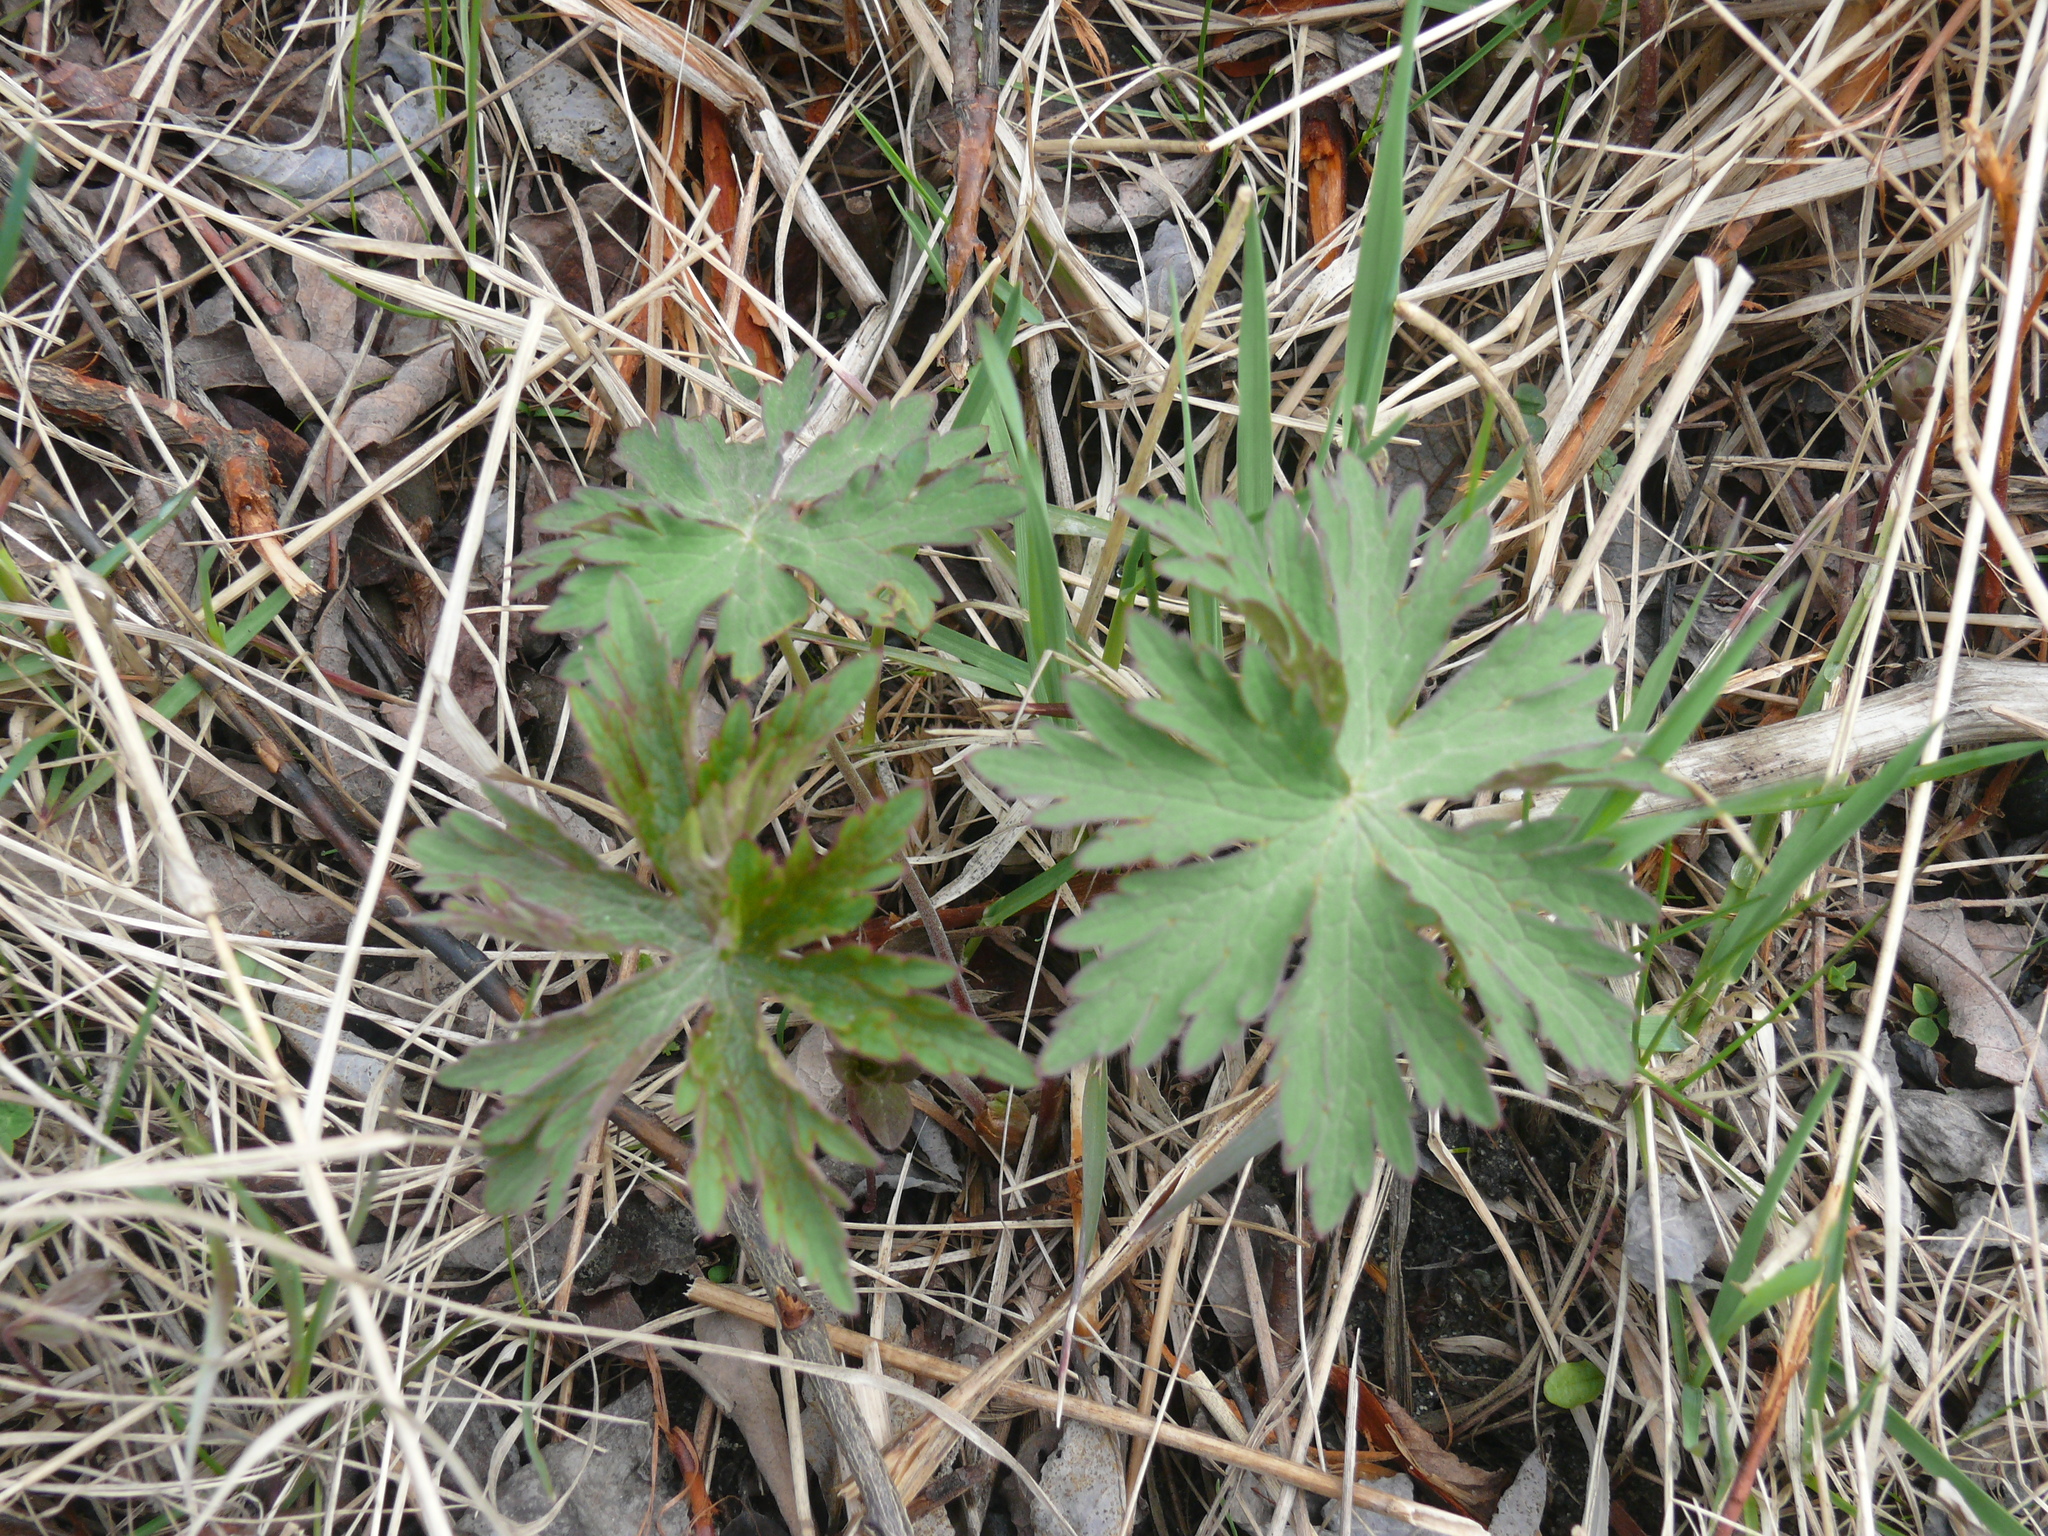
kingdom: Plantae
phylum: Tracheophyta
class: Magnoliopsida
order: Geraniales
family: Geraniaceae
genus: Geranium
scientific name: Geranium erianthum
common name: Northern crane's-bill
